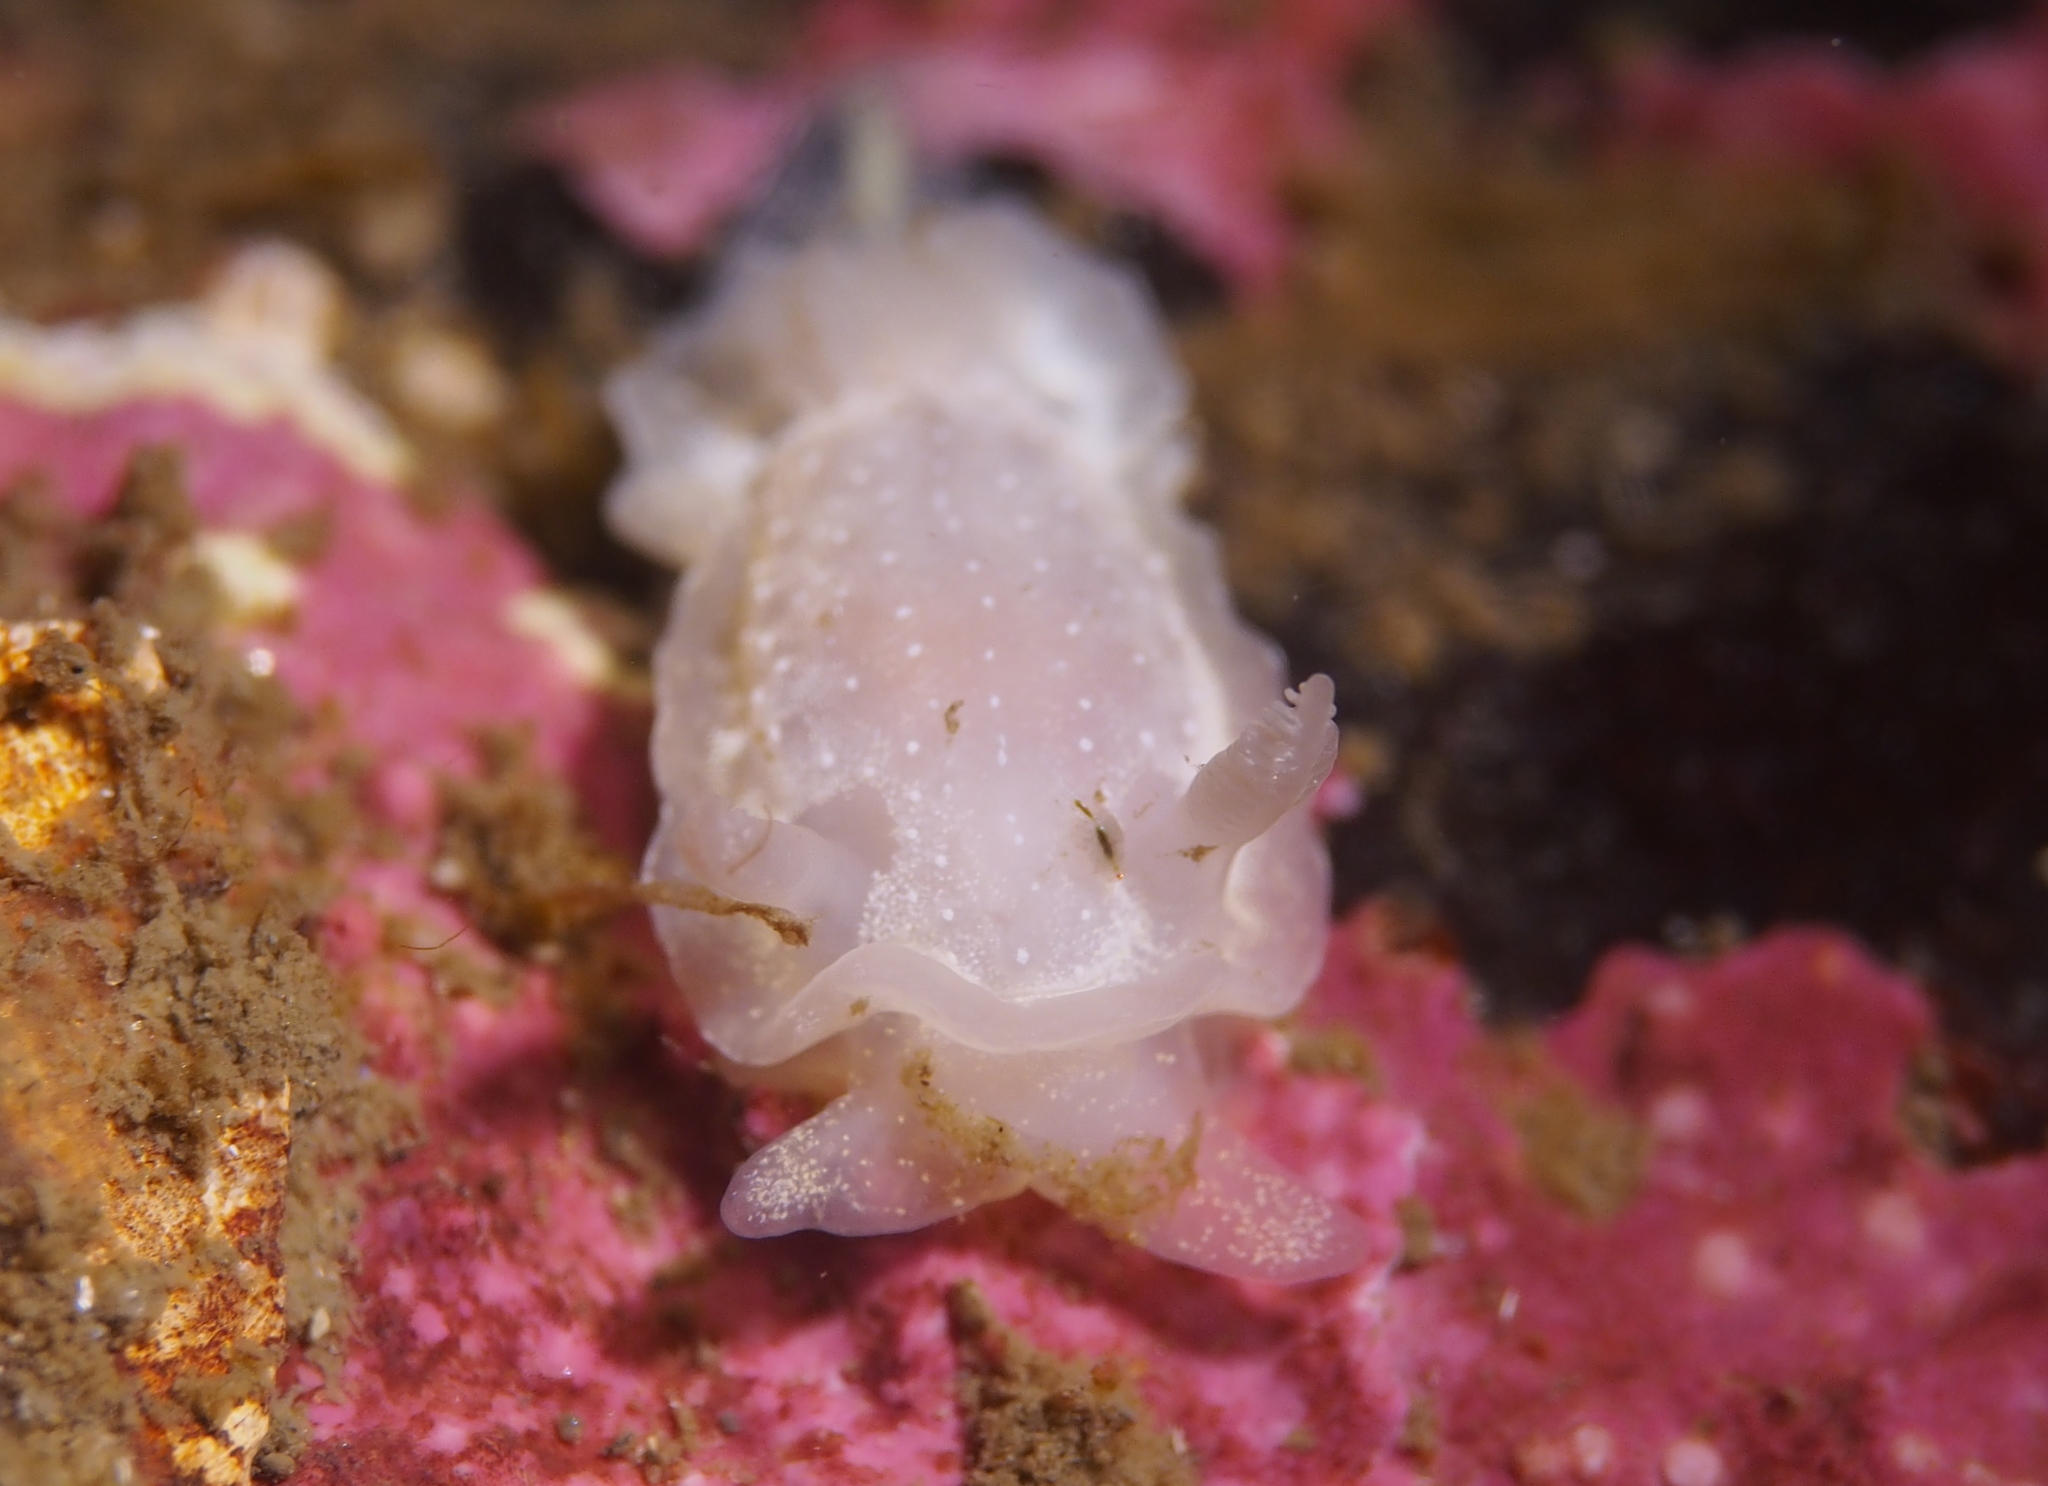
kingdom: Animalia
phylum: Mollusca
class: Gastropoda
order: Nudibranchia
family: Goniodorididae
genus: Okenia
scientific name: Okenia
